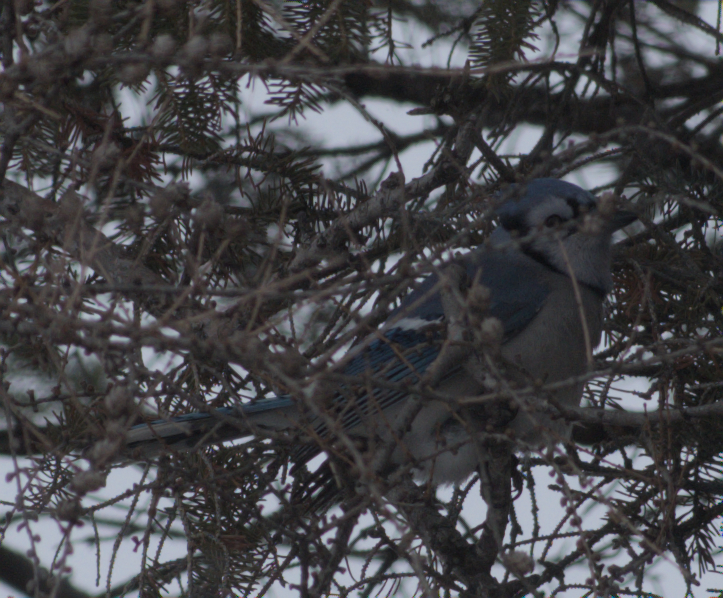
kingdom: Animalia
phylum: Chordata
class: Aves
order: Passeriformes
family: Corvidae
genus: Cyanocitta
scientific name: Cyanocitta cristata
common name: Blue jay
